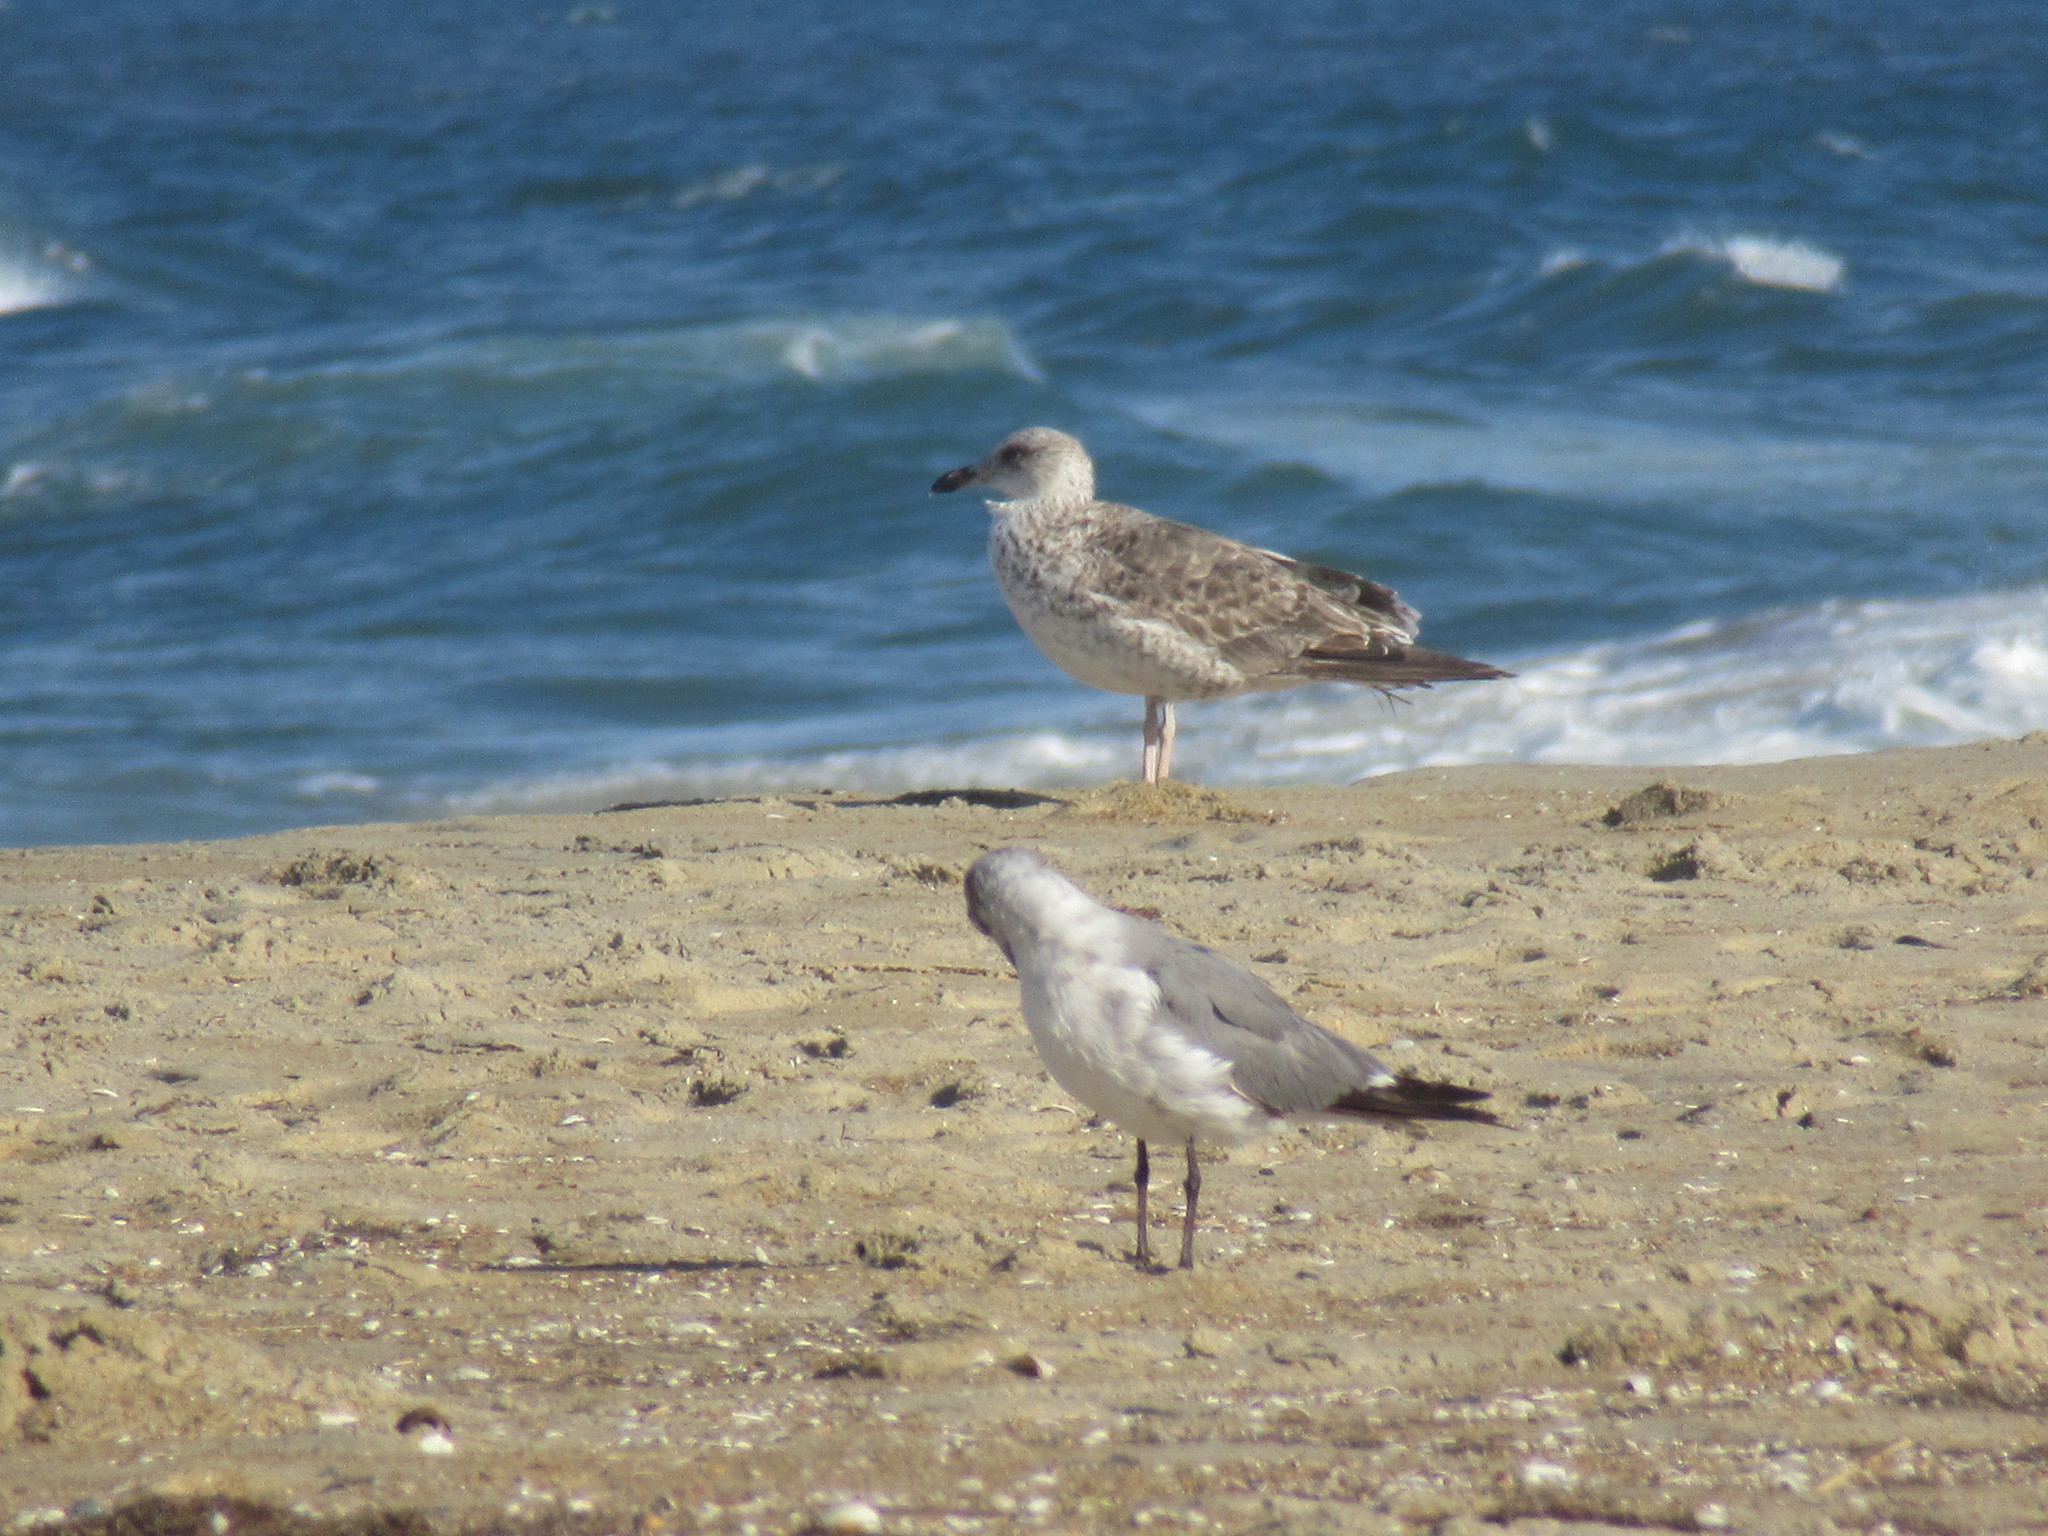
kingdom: Animalia
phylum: Chordata
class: Aves
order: Charadriiformes
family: Laridae
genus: Larus
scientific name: Larus argentatus
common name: Herring gull
